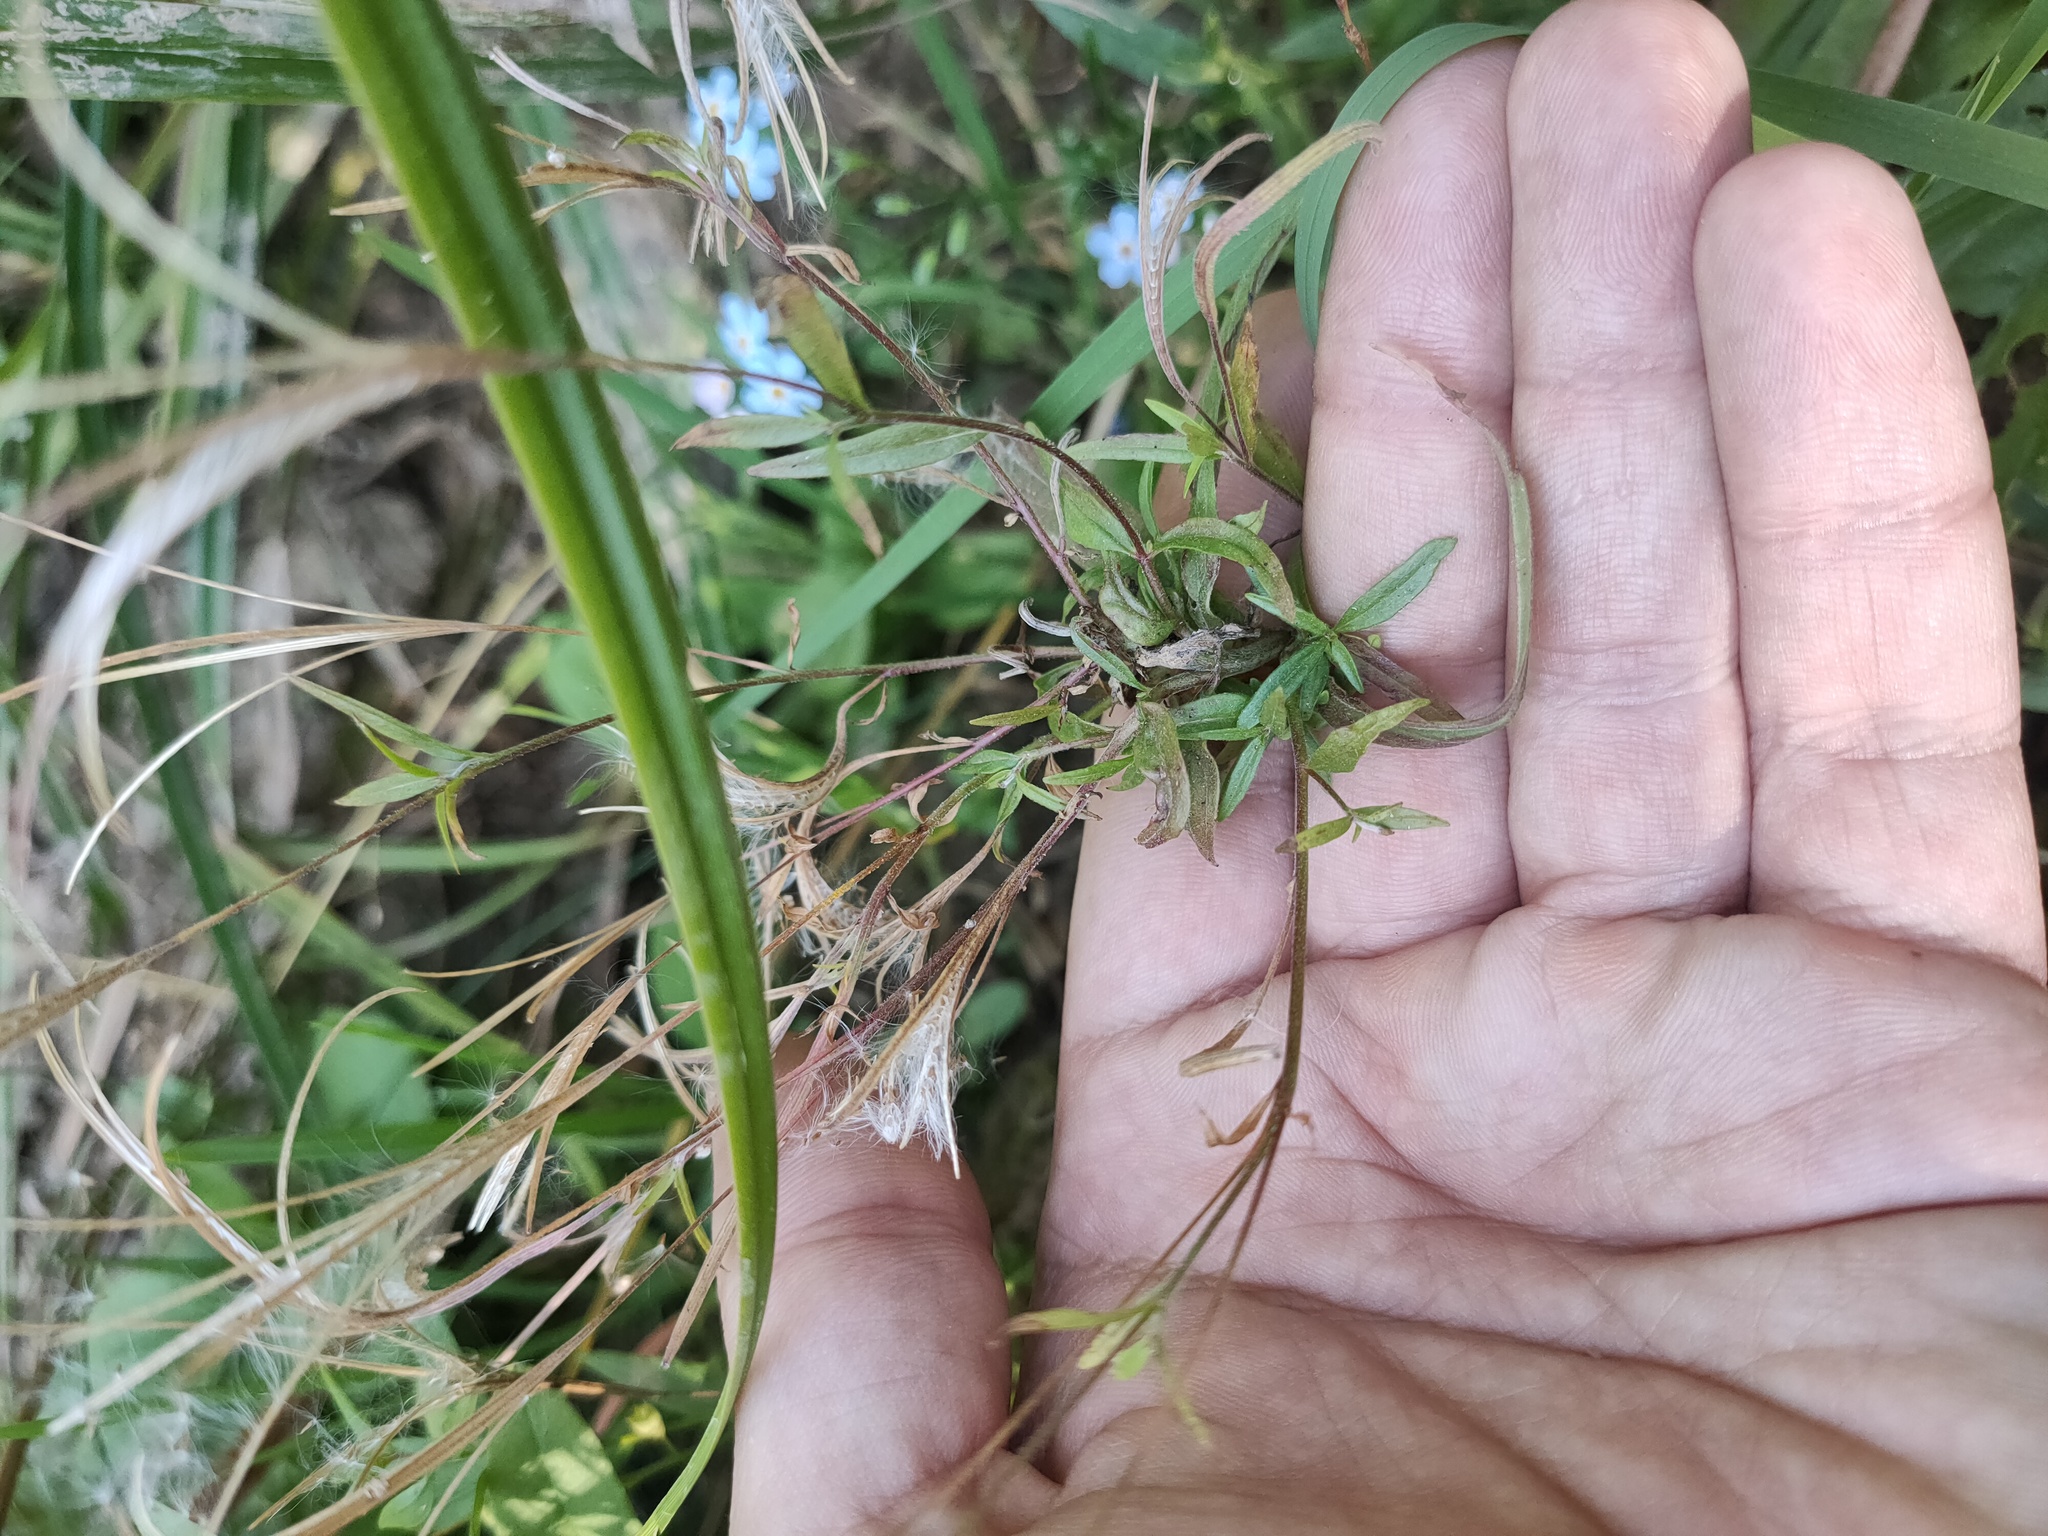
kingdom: Plantae
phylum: Tracheophyta
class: Magnoliopsida
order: Myrtales
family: Onagraceae
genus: Epilobium
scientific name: Epilobium palustre
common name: Marsh willowherb
